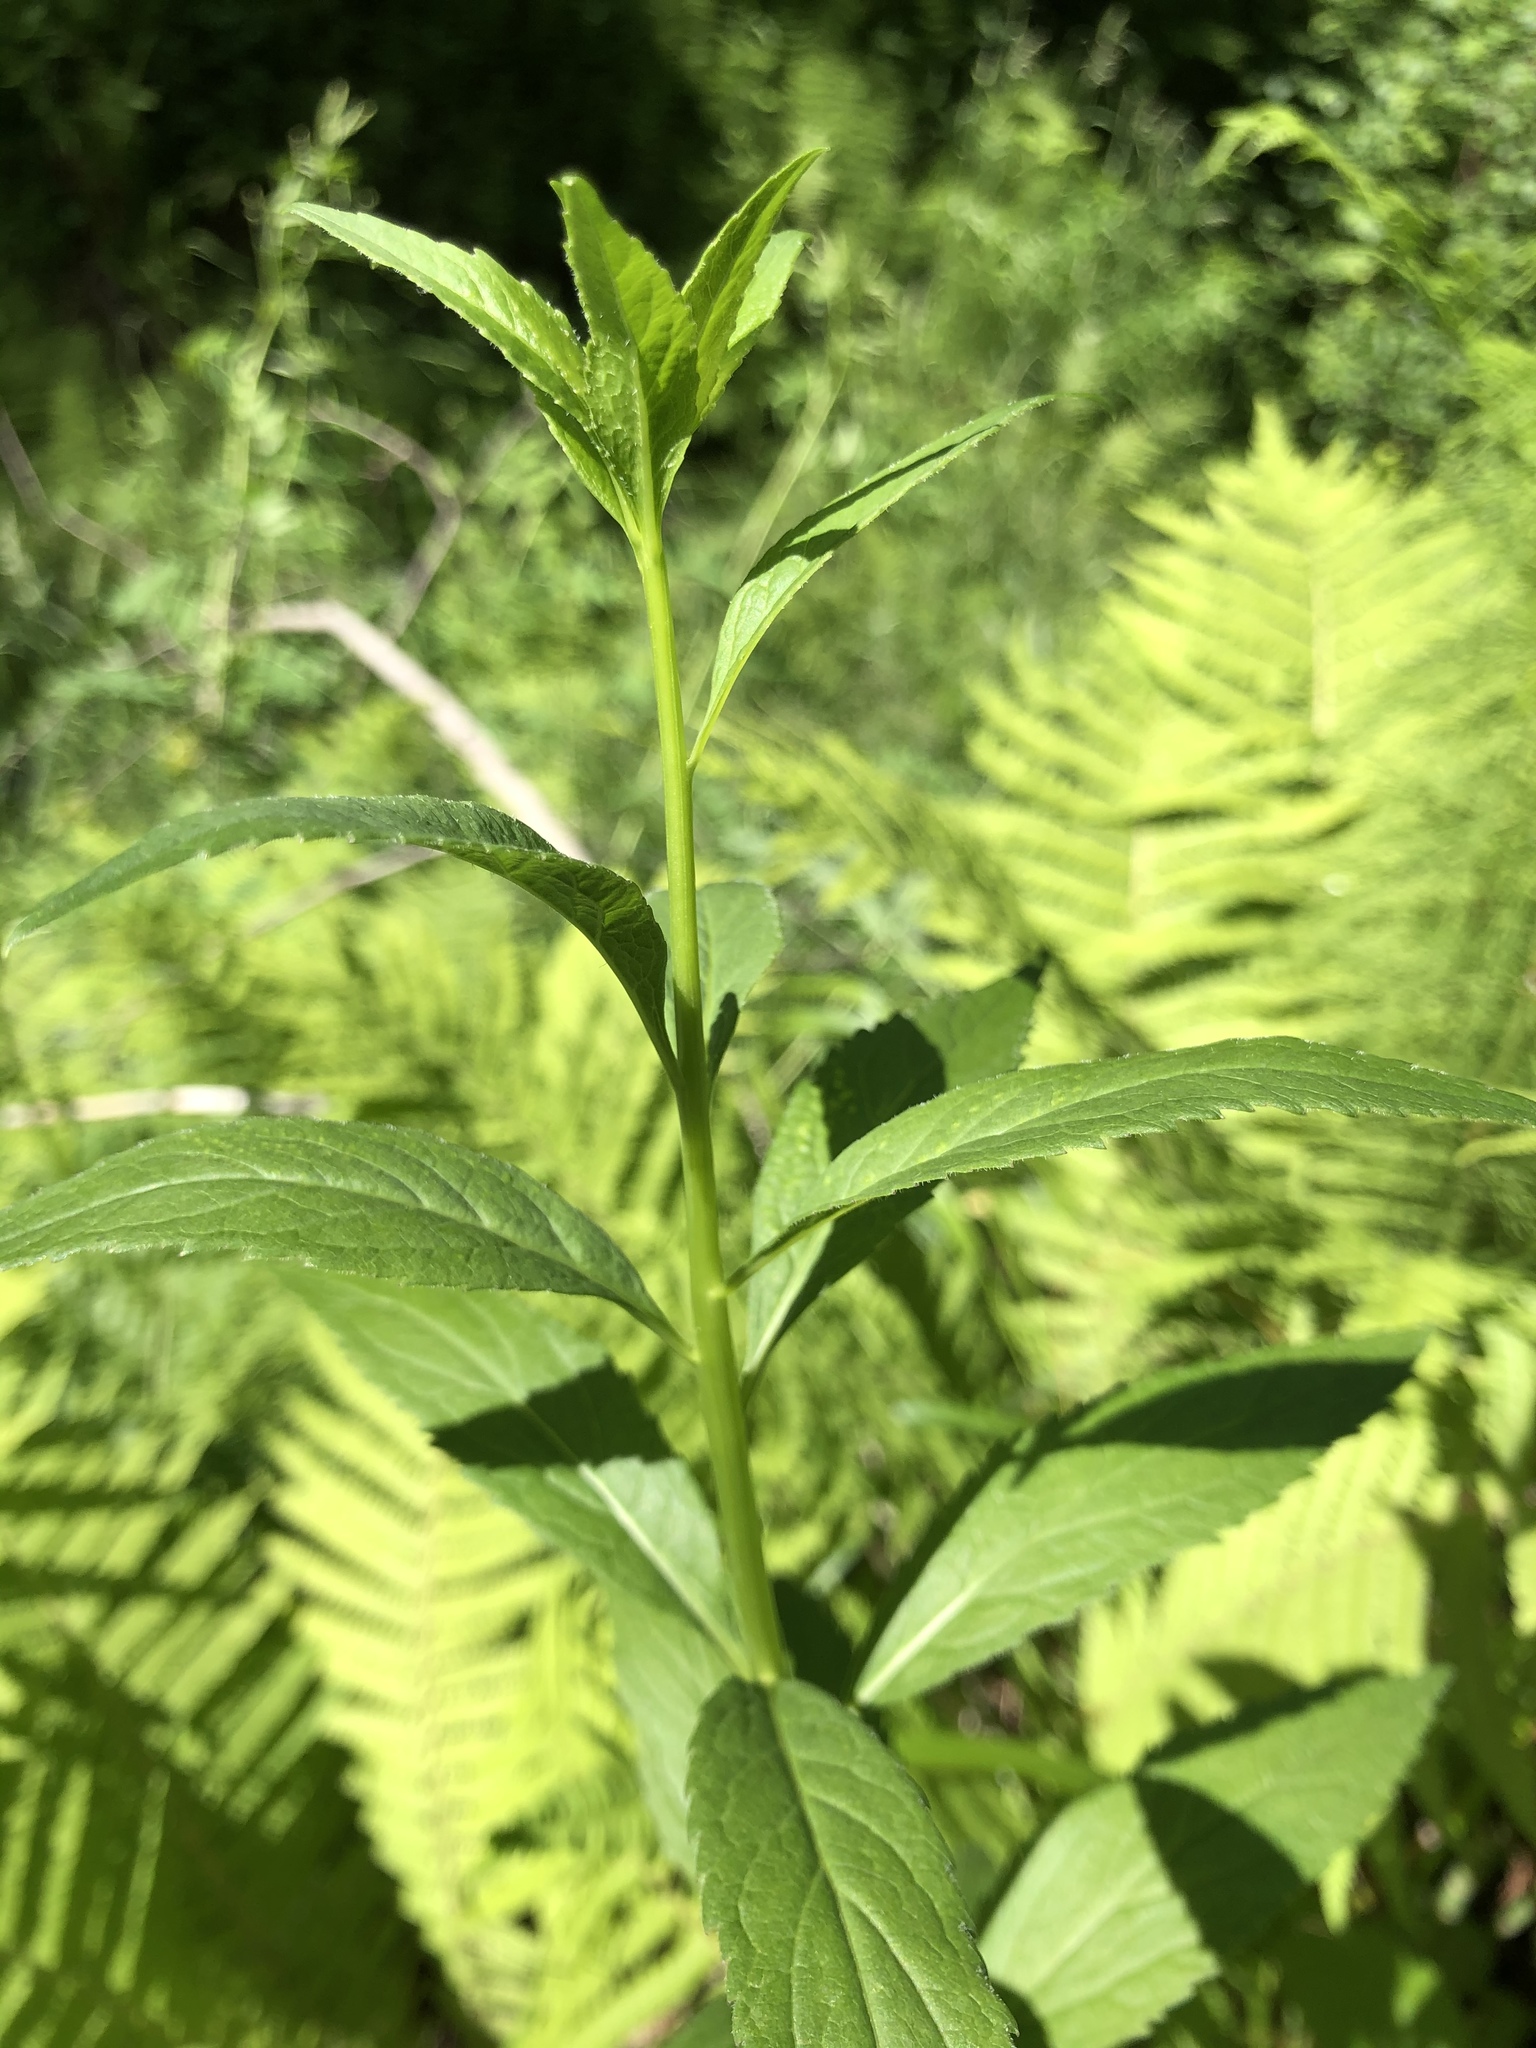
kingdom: Plantae
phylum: Tracheophyta
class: Magnoliopsida
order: Asterales
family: Campanulaceae
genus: Adenophora
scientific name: Adenophora liliifolia
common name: Lilyleaf ladybells
